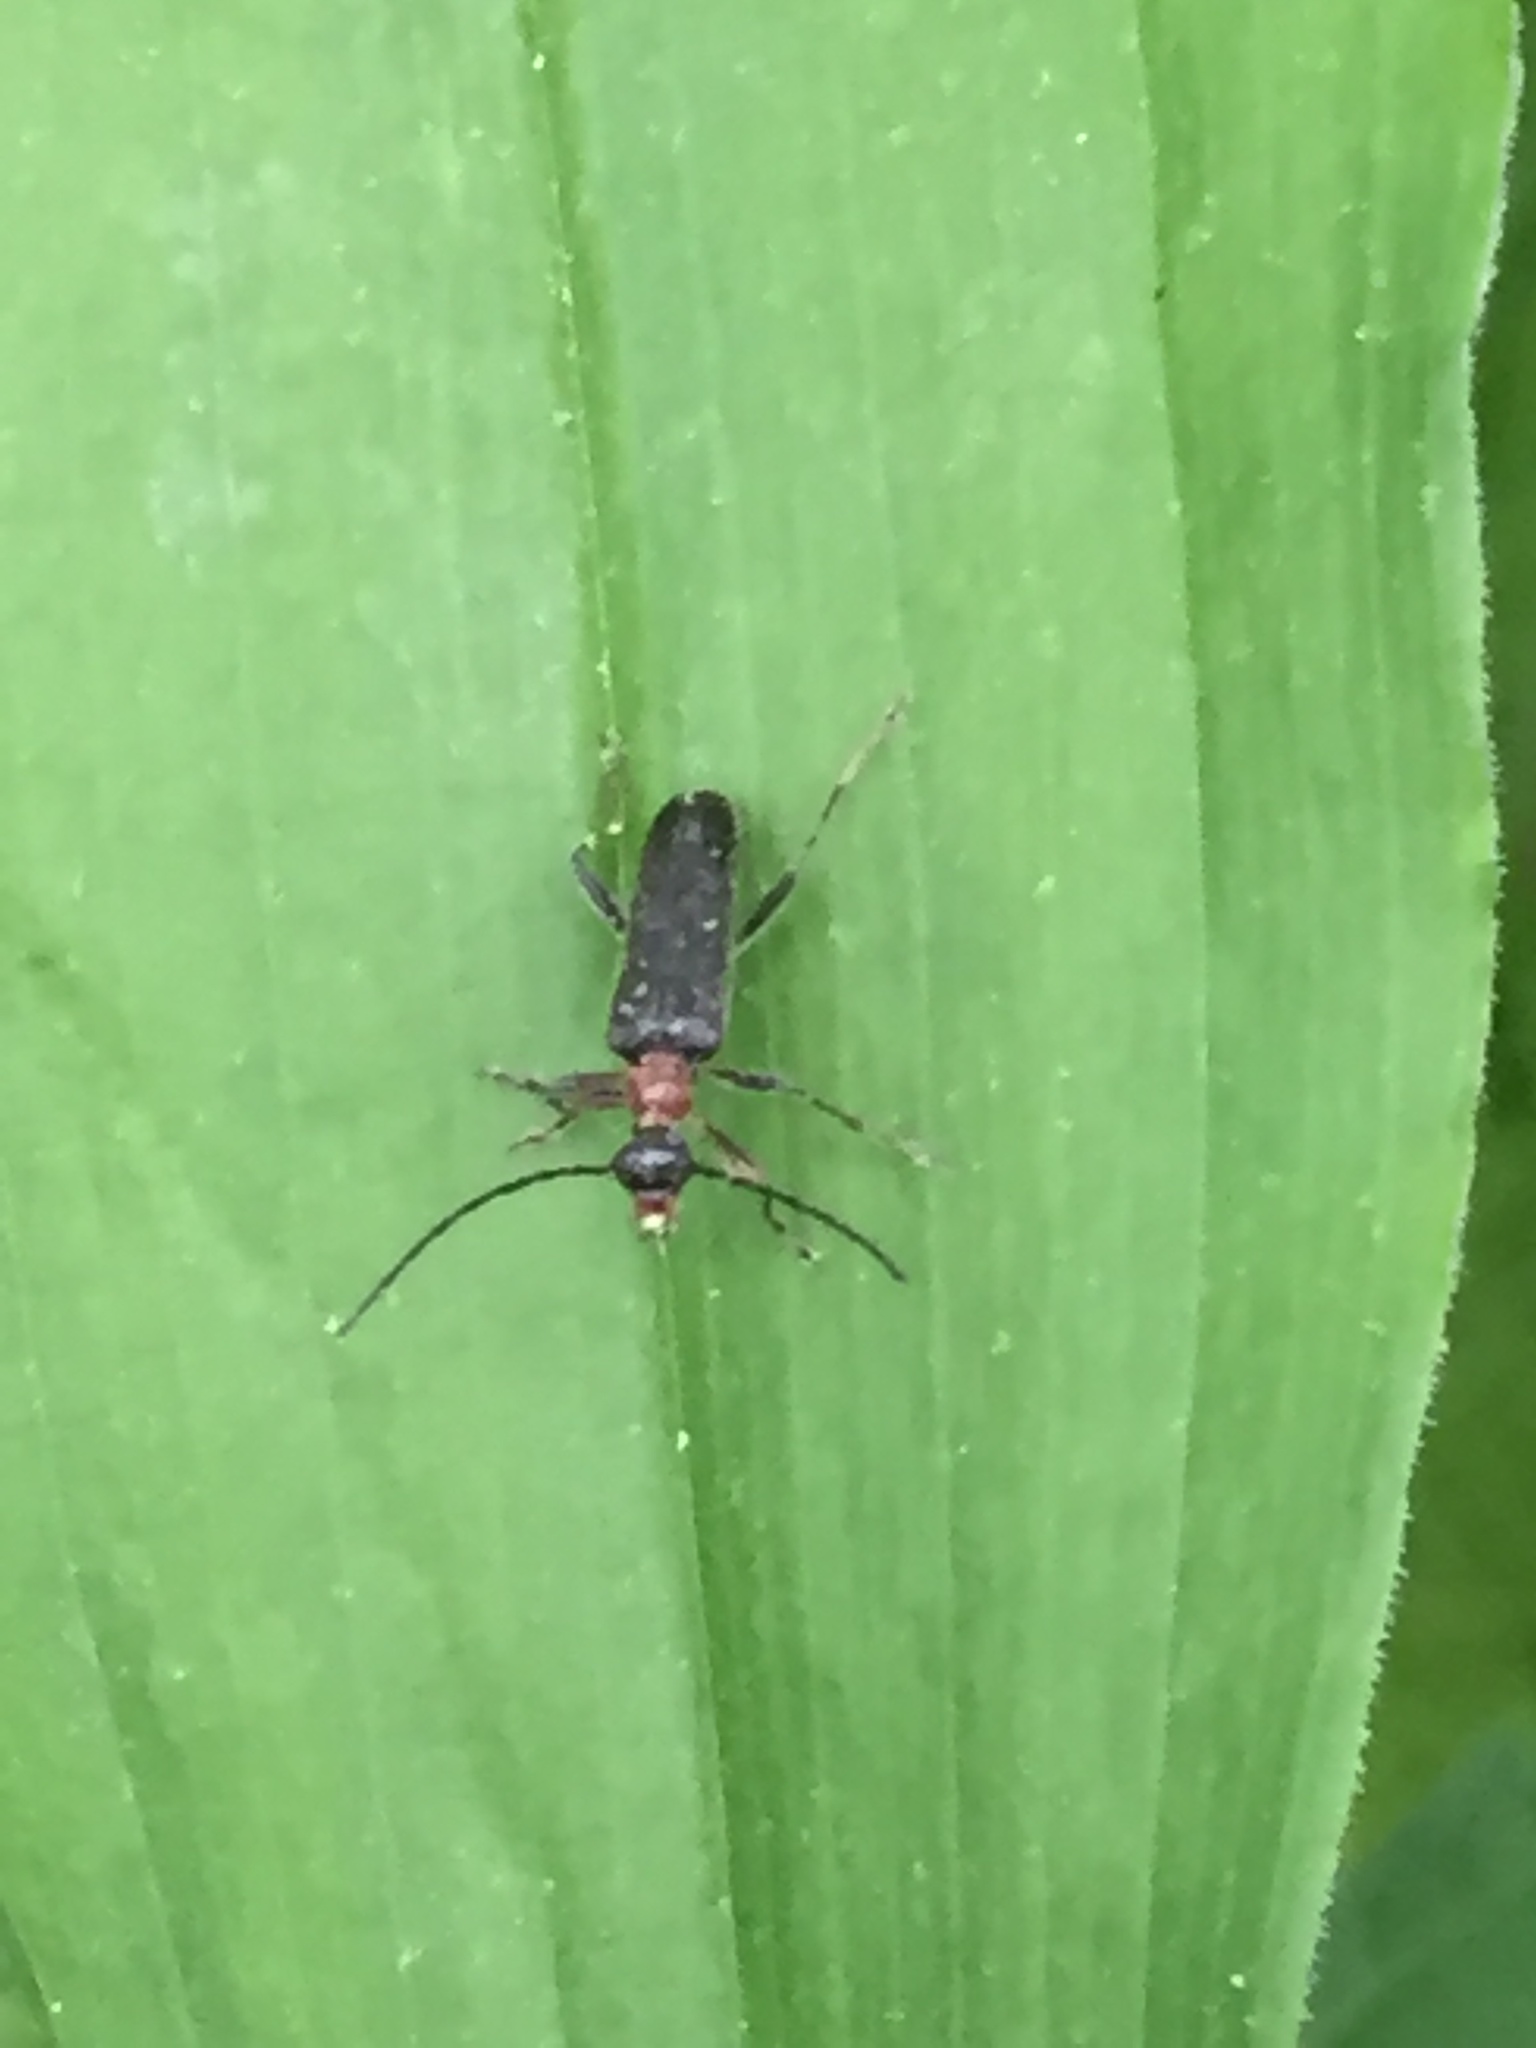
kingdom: Animalia
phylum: Arthropoda
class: Insecta
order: Coleoptera
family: Cerambycidae
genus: Grammoptera
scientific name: Grammoptera haematites
